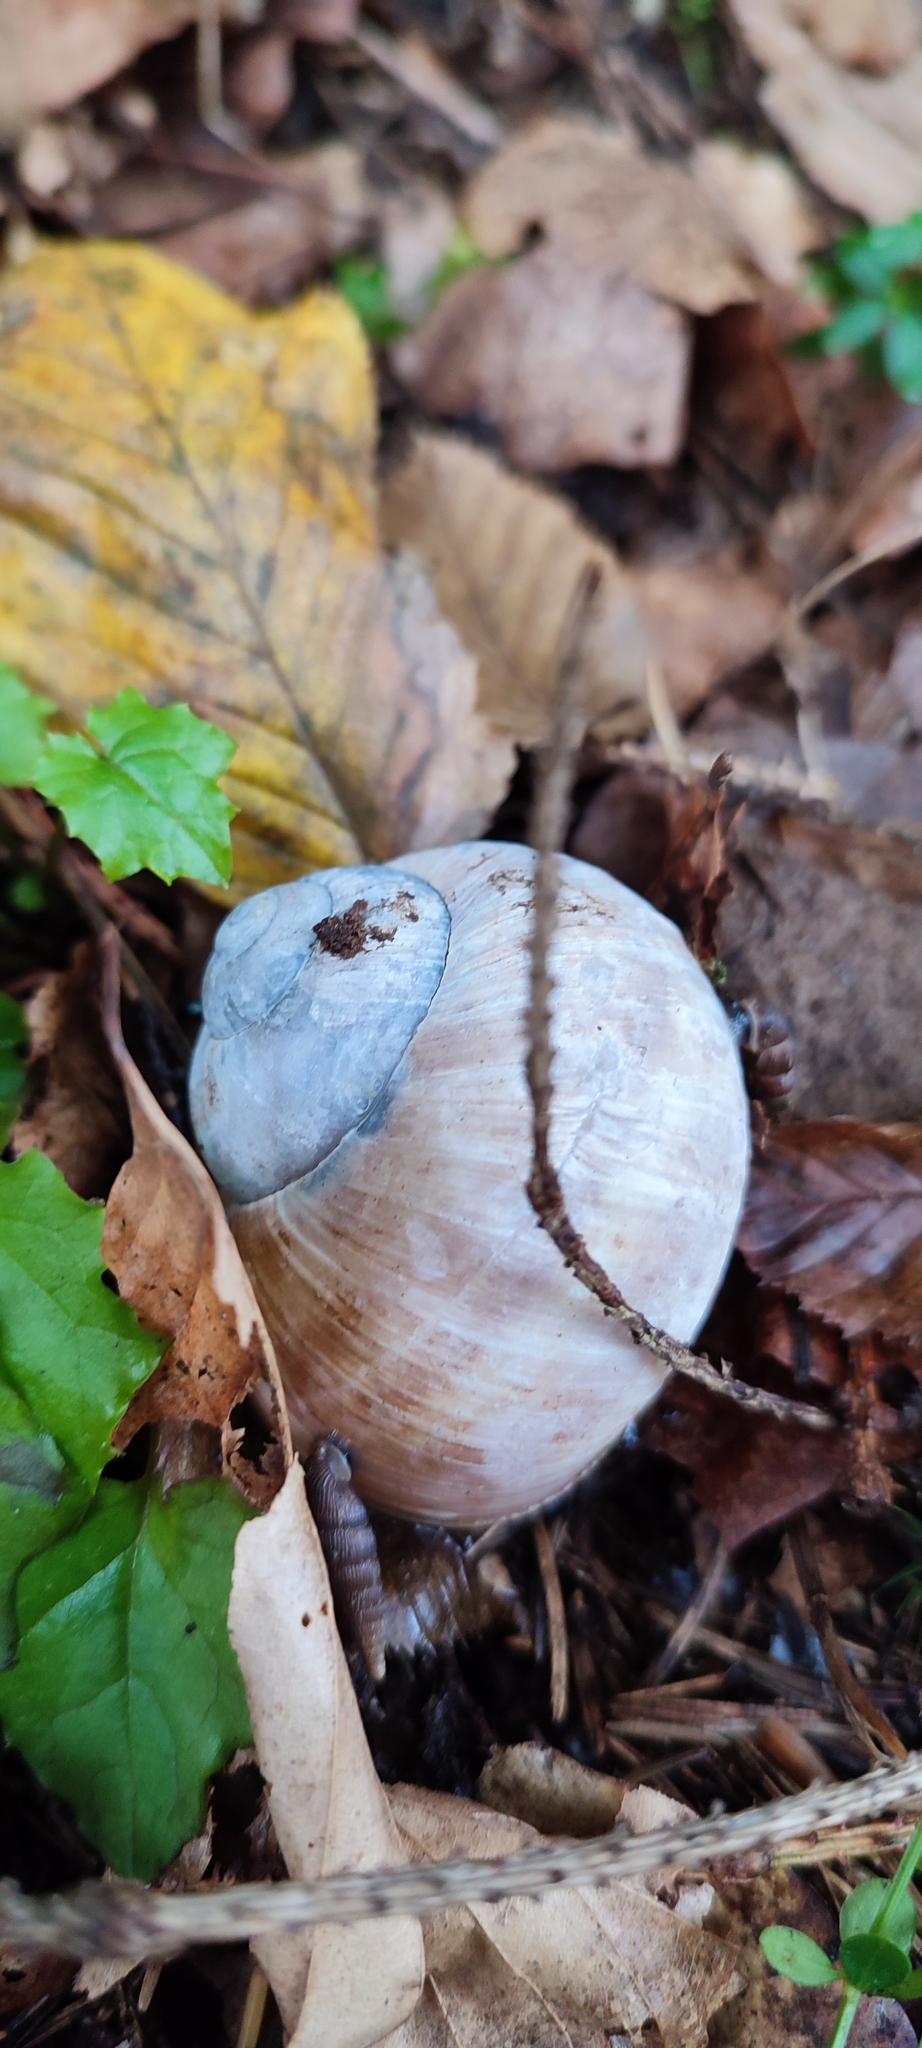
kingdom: Animalia
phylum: Mollusca
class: Gastropoda
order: Stylommatophora
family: Helicidae
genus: Helix
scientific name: Helix pomatia
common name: Roman snail
